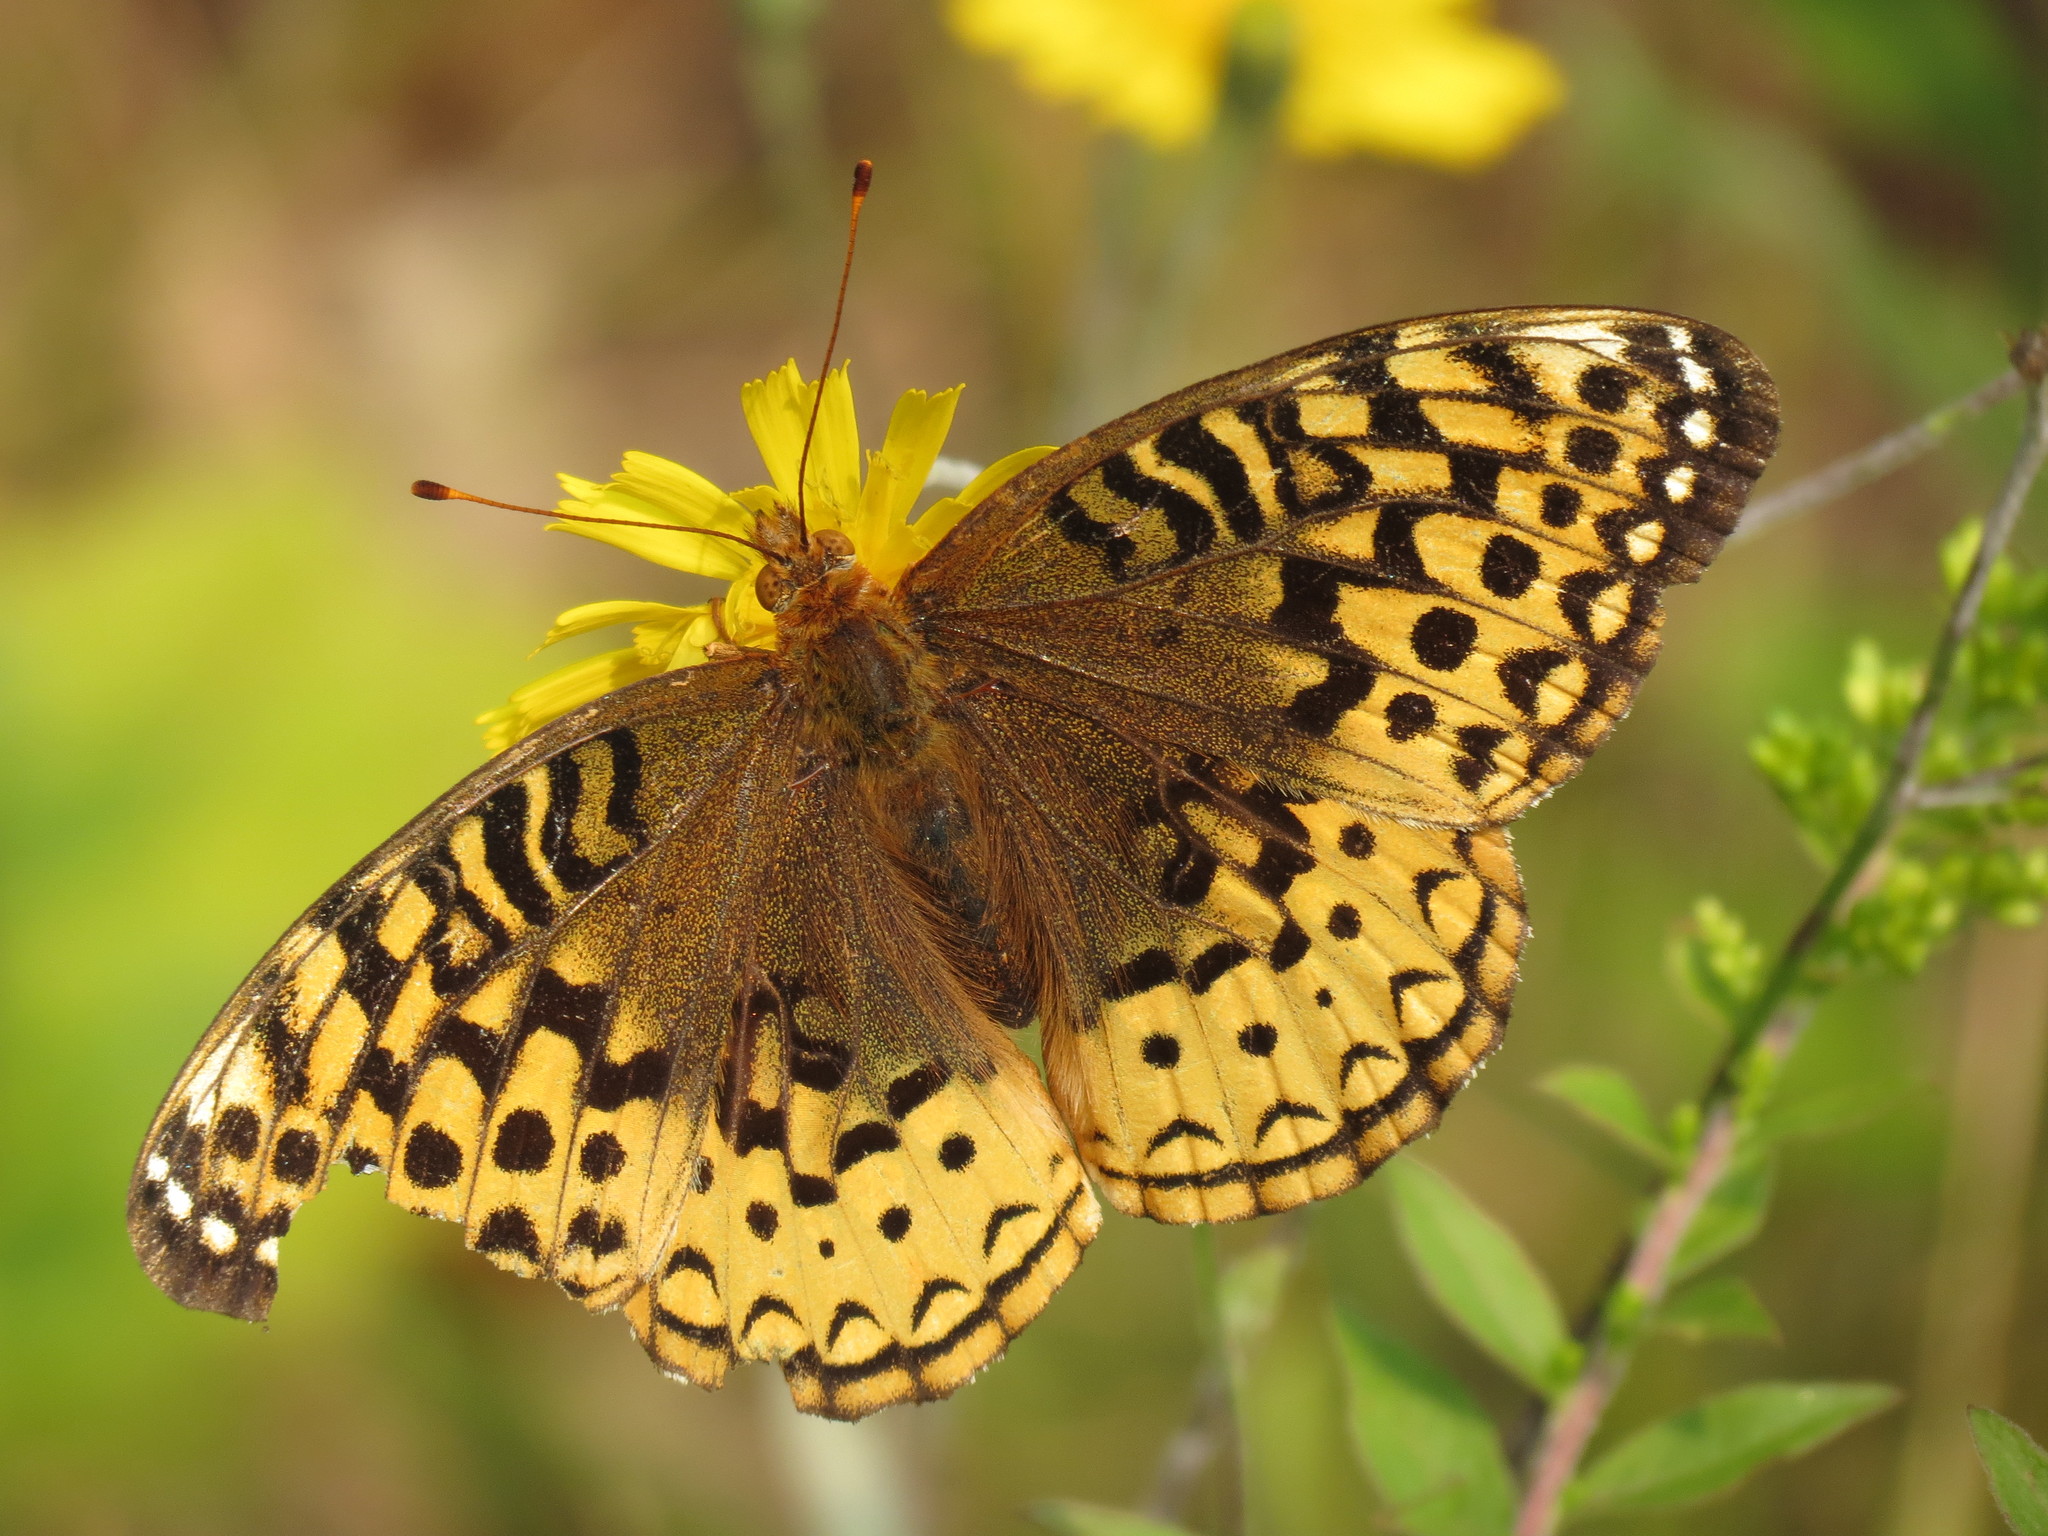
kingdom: Animalia
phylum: Arthropoda
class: Insecta
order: Lepidoptera
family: Nymphalidae
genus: Speyeria
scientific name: Speyeria cybele
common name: Great spangled fritillary
